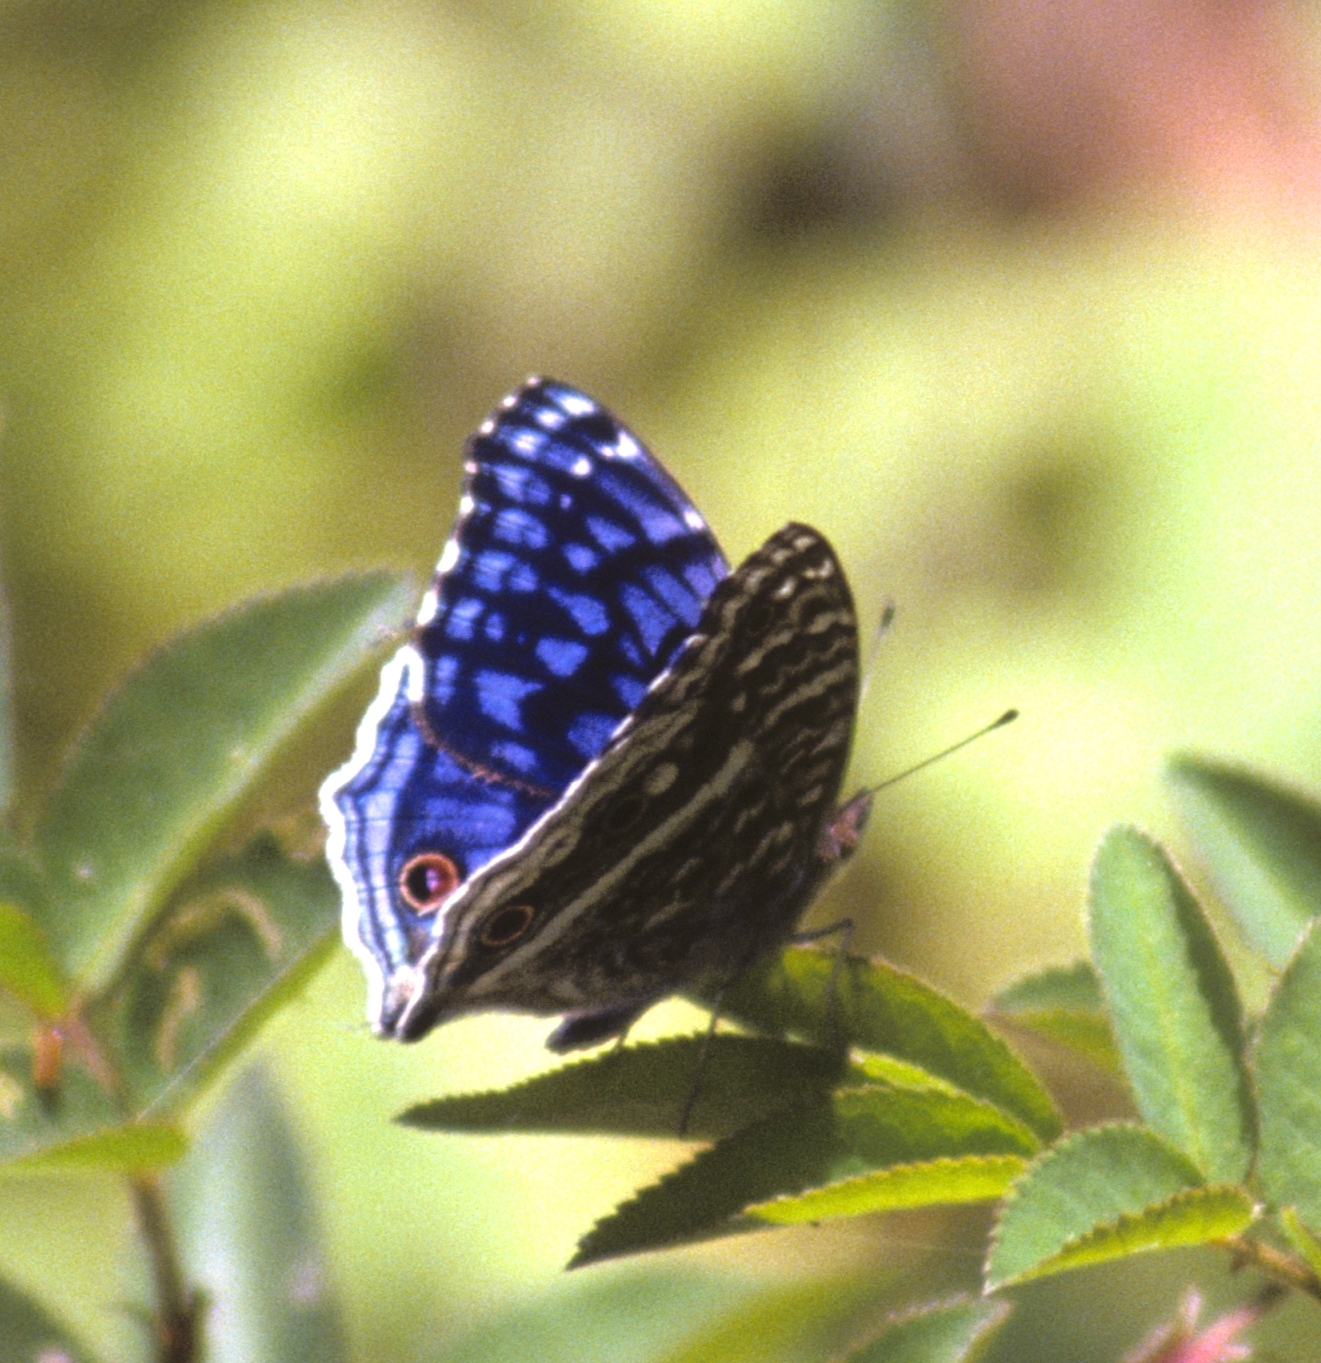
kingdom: Animalia
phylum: Arthropoda
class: Insecta
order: Lepidoptera
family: Nymphalidae
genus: Junonia
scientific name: Junonia rhadama
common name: Royal blue pansy
